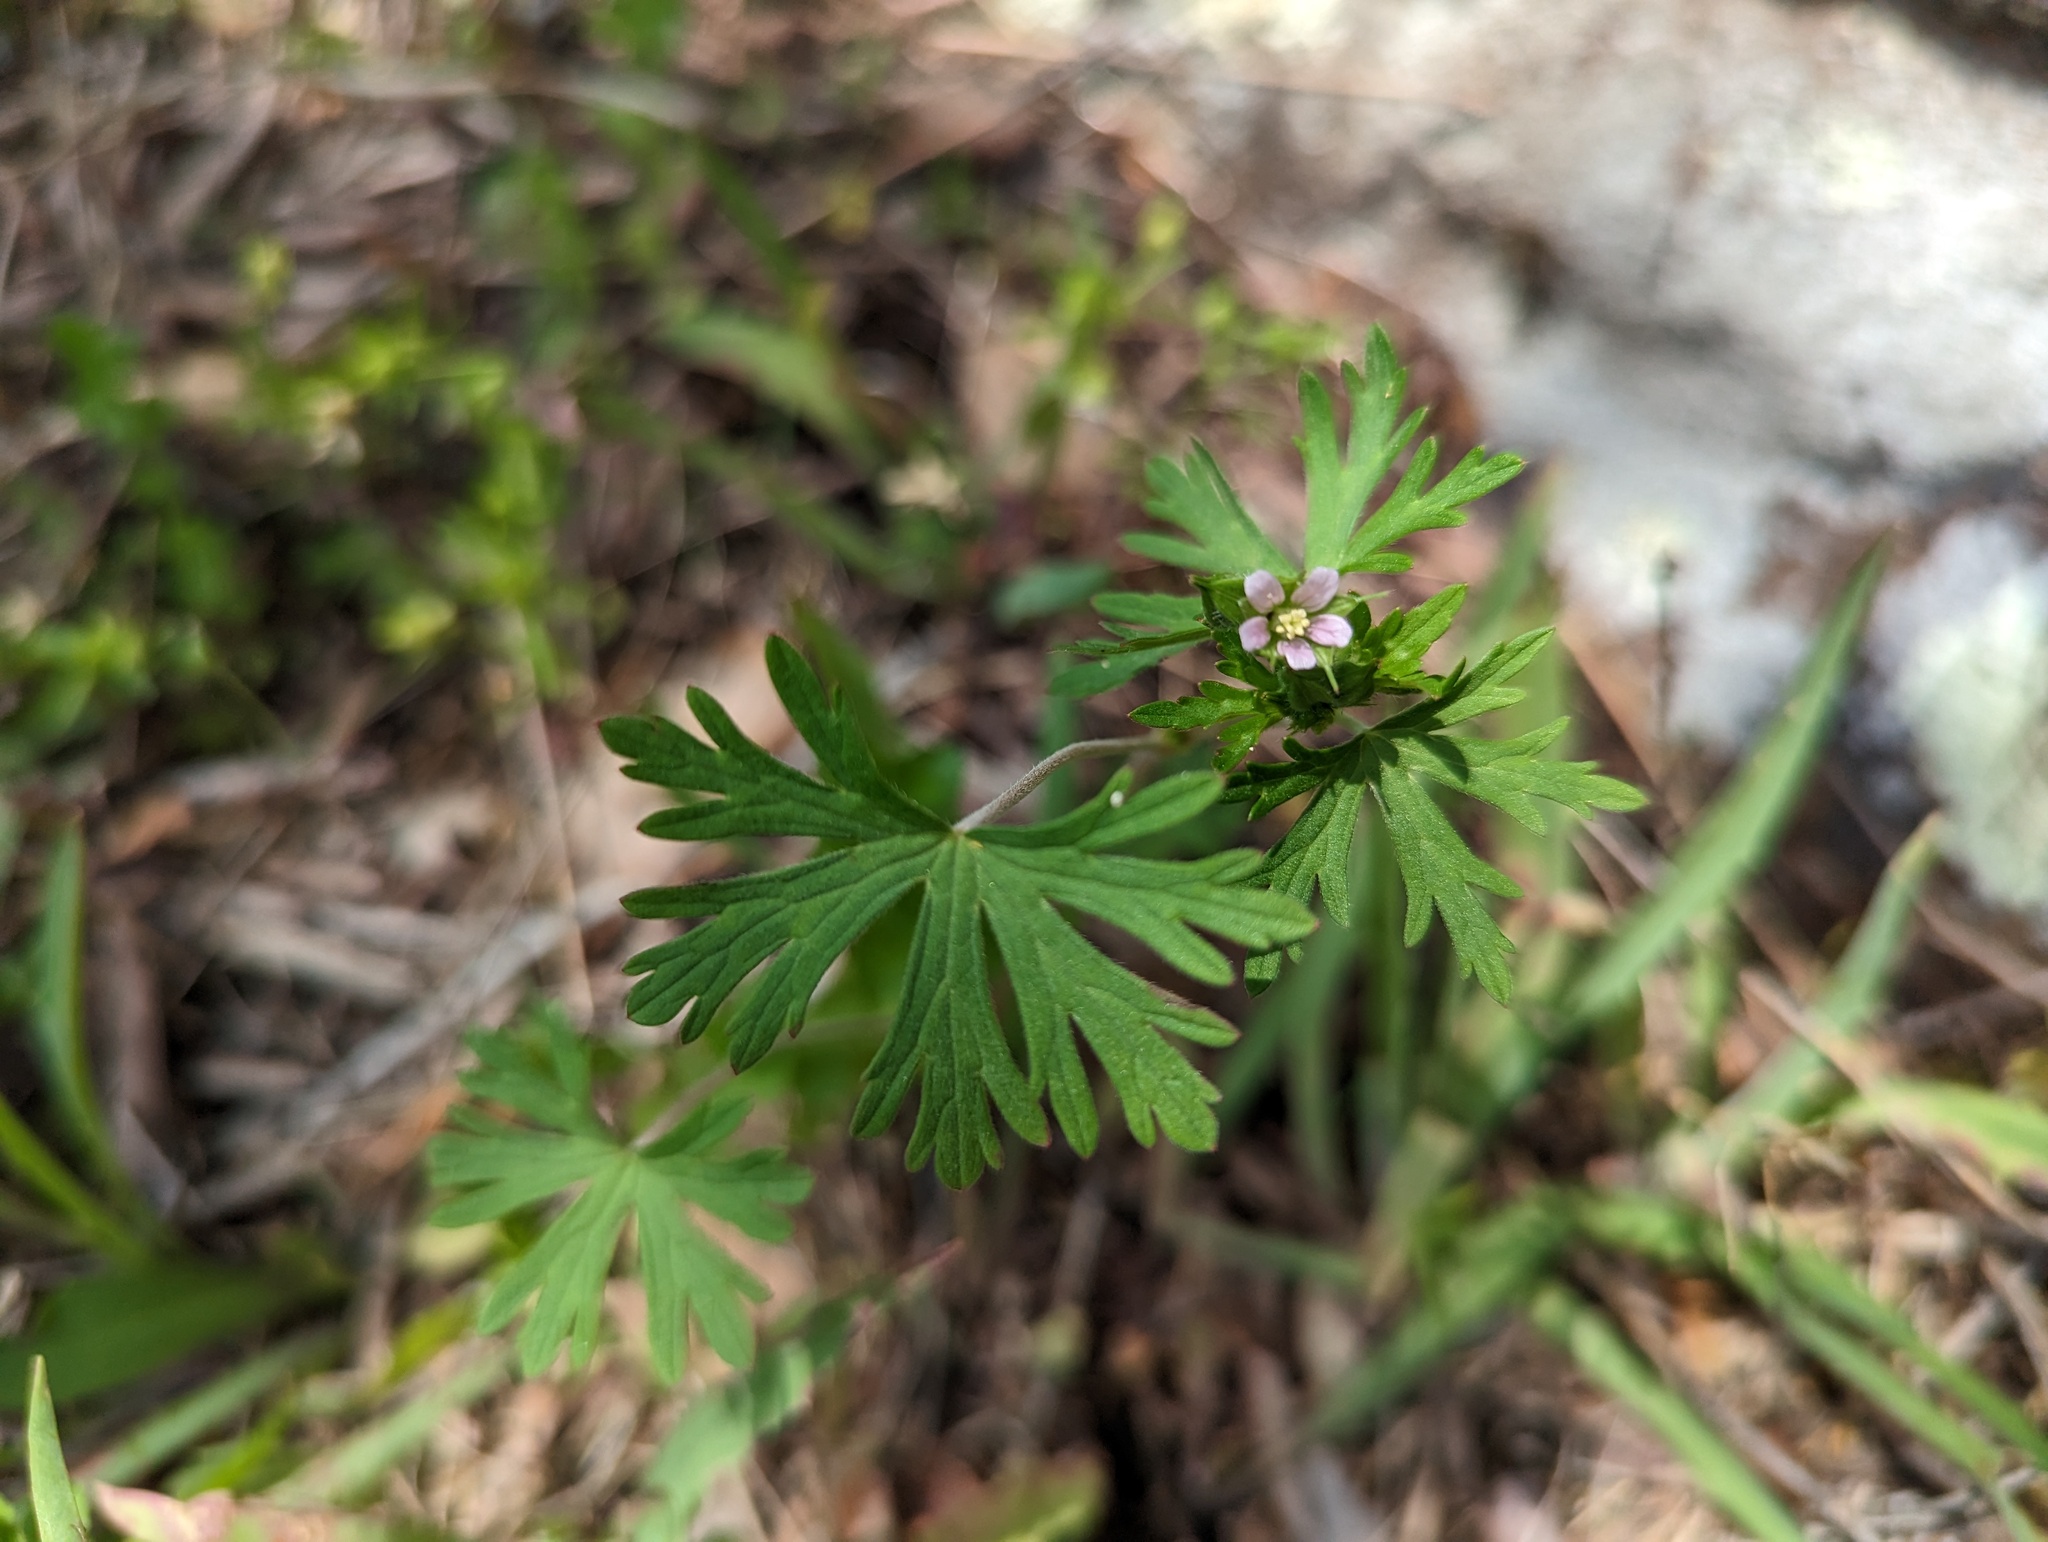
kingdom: Plantae
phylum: Tracheophyta
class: Magnoliopsida
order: Geraniales
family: Geraniaceae
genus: Geranium
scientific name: Geranium carolinianum
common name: Carolina crane's-bill
